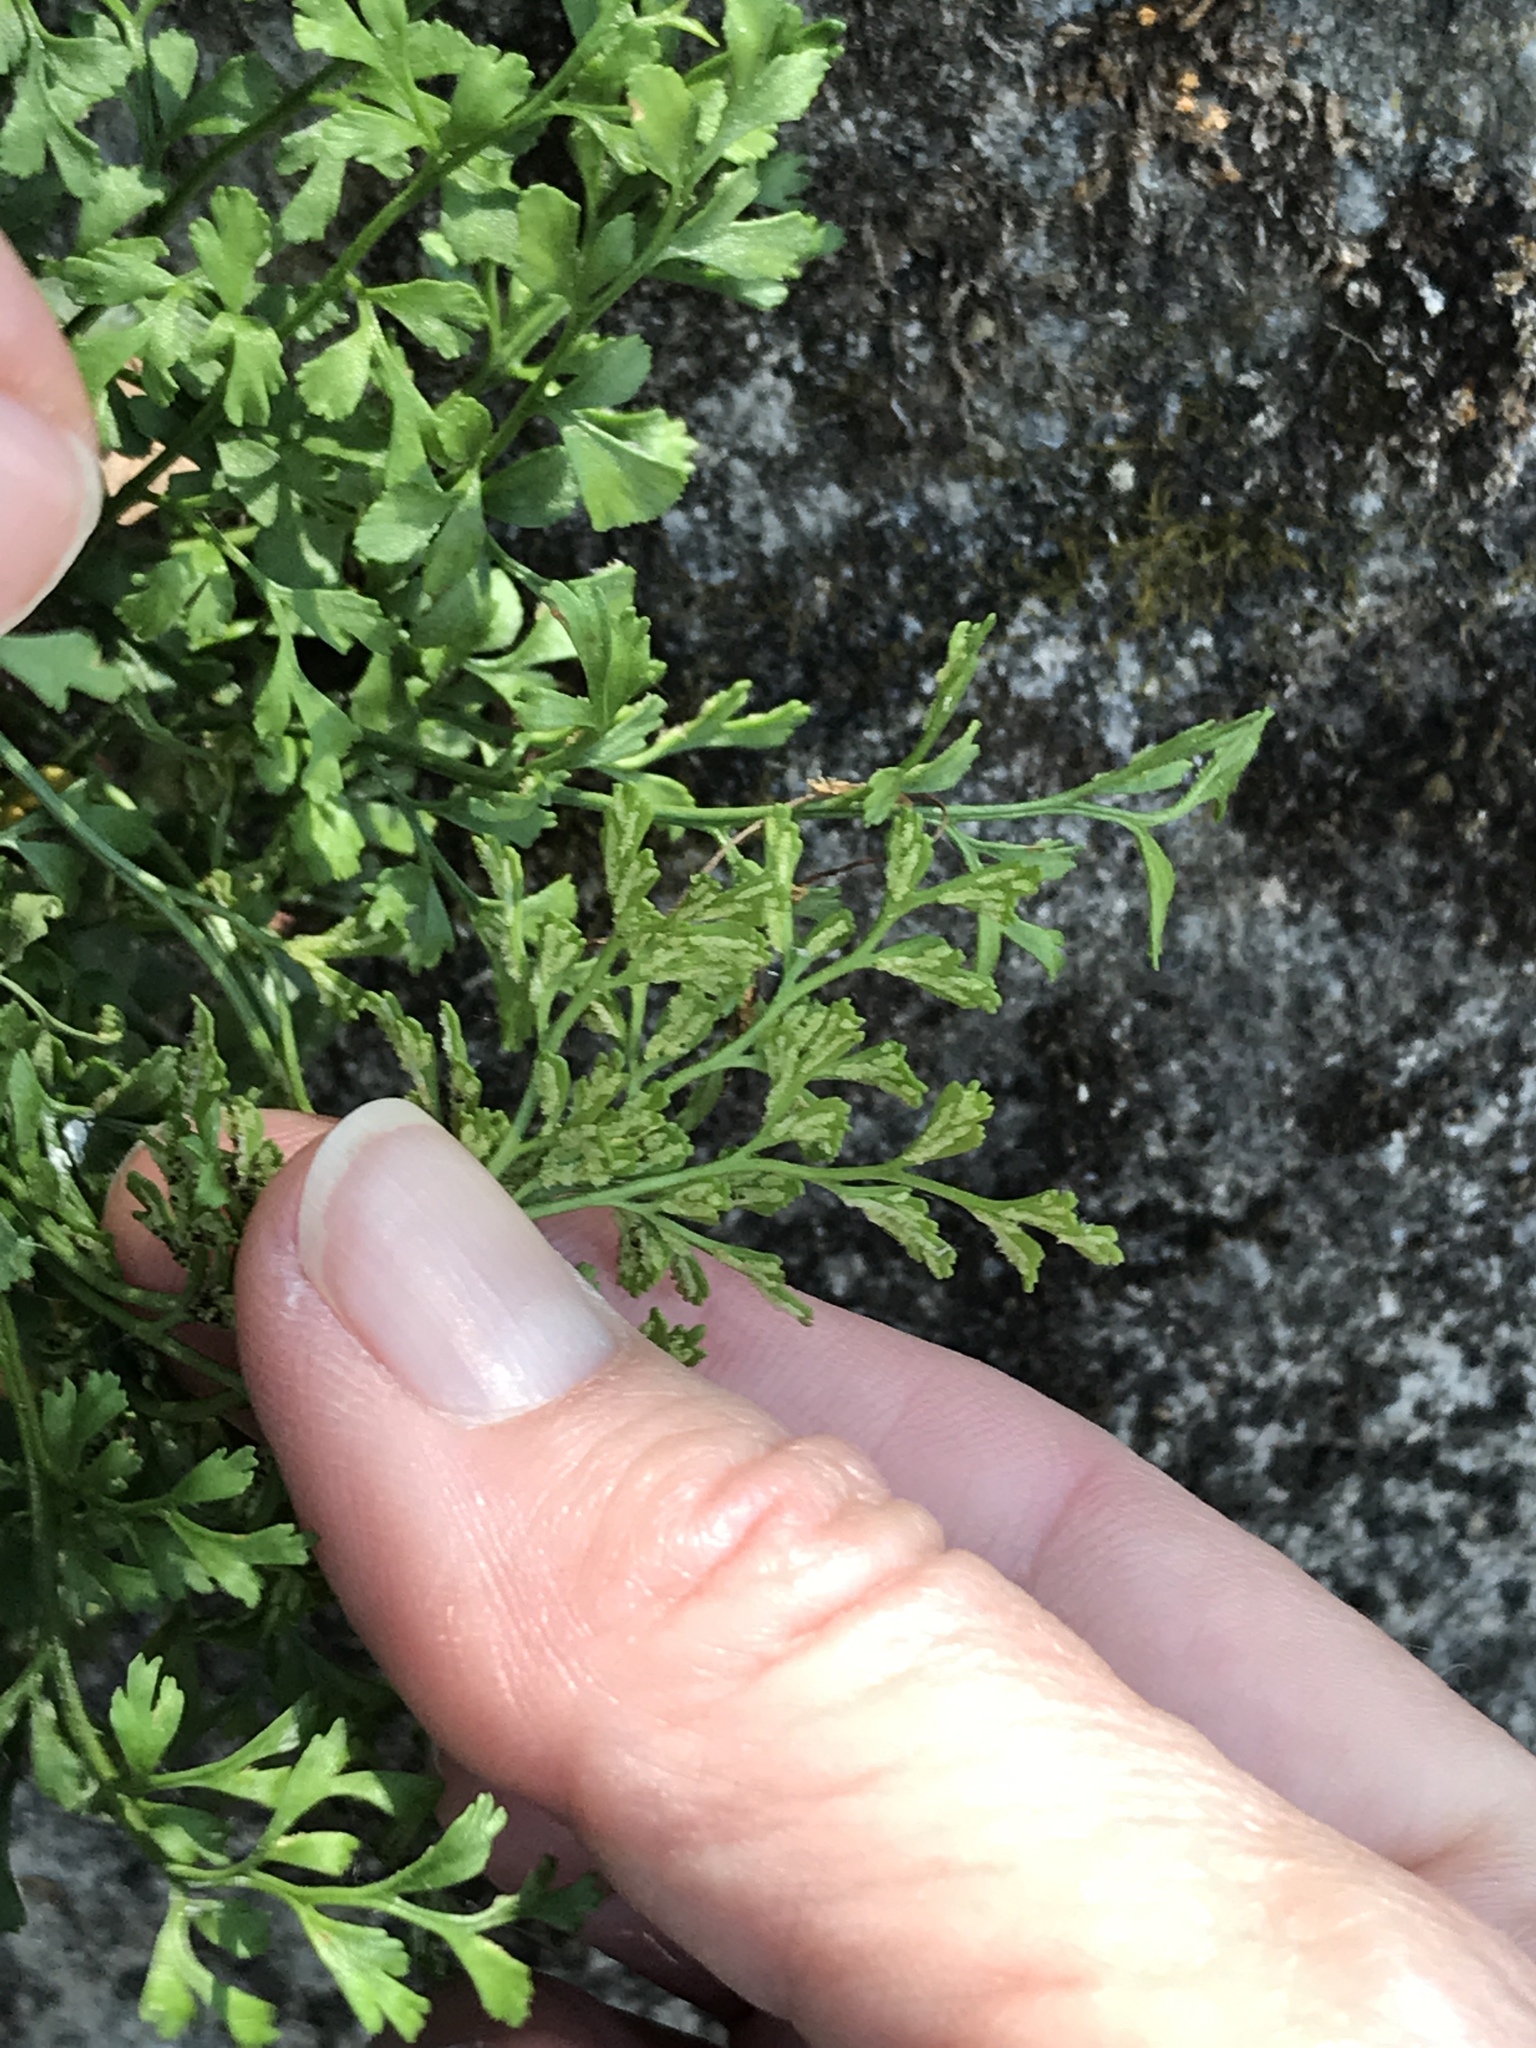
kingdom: Plantae
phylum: Tracheophyta
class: Polypodiopsida
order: Polypodiales
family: Aspleniaceae
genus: Asplenium
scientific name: Asplenium ruta-muraria
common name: Wall-rue
